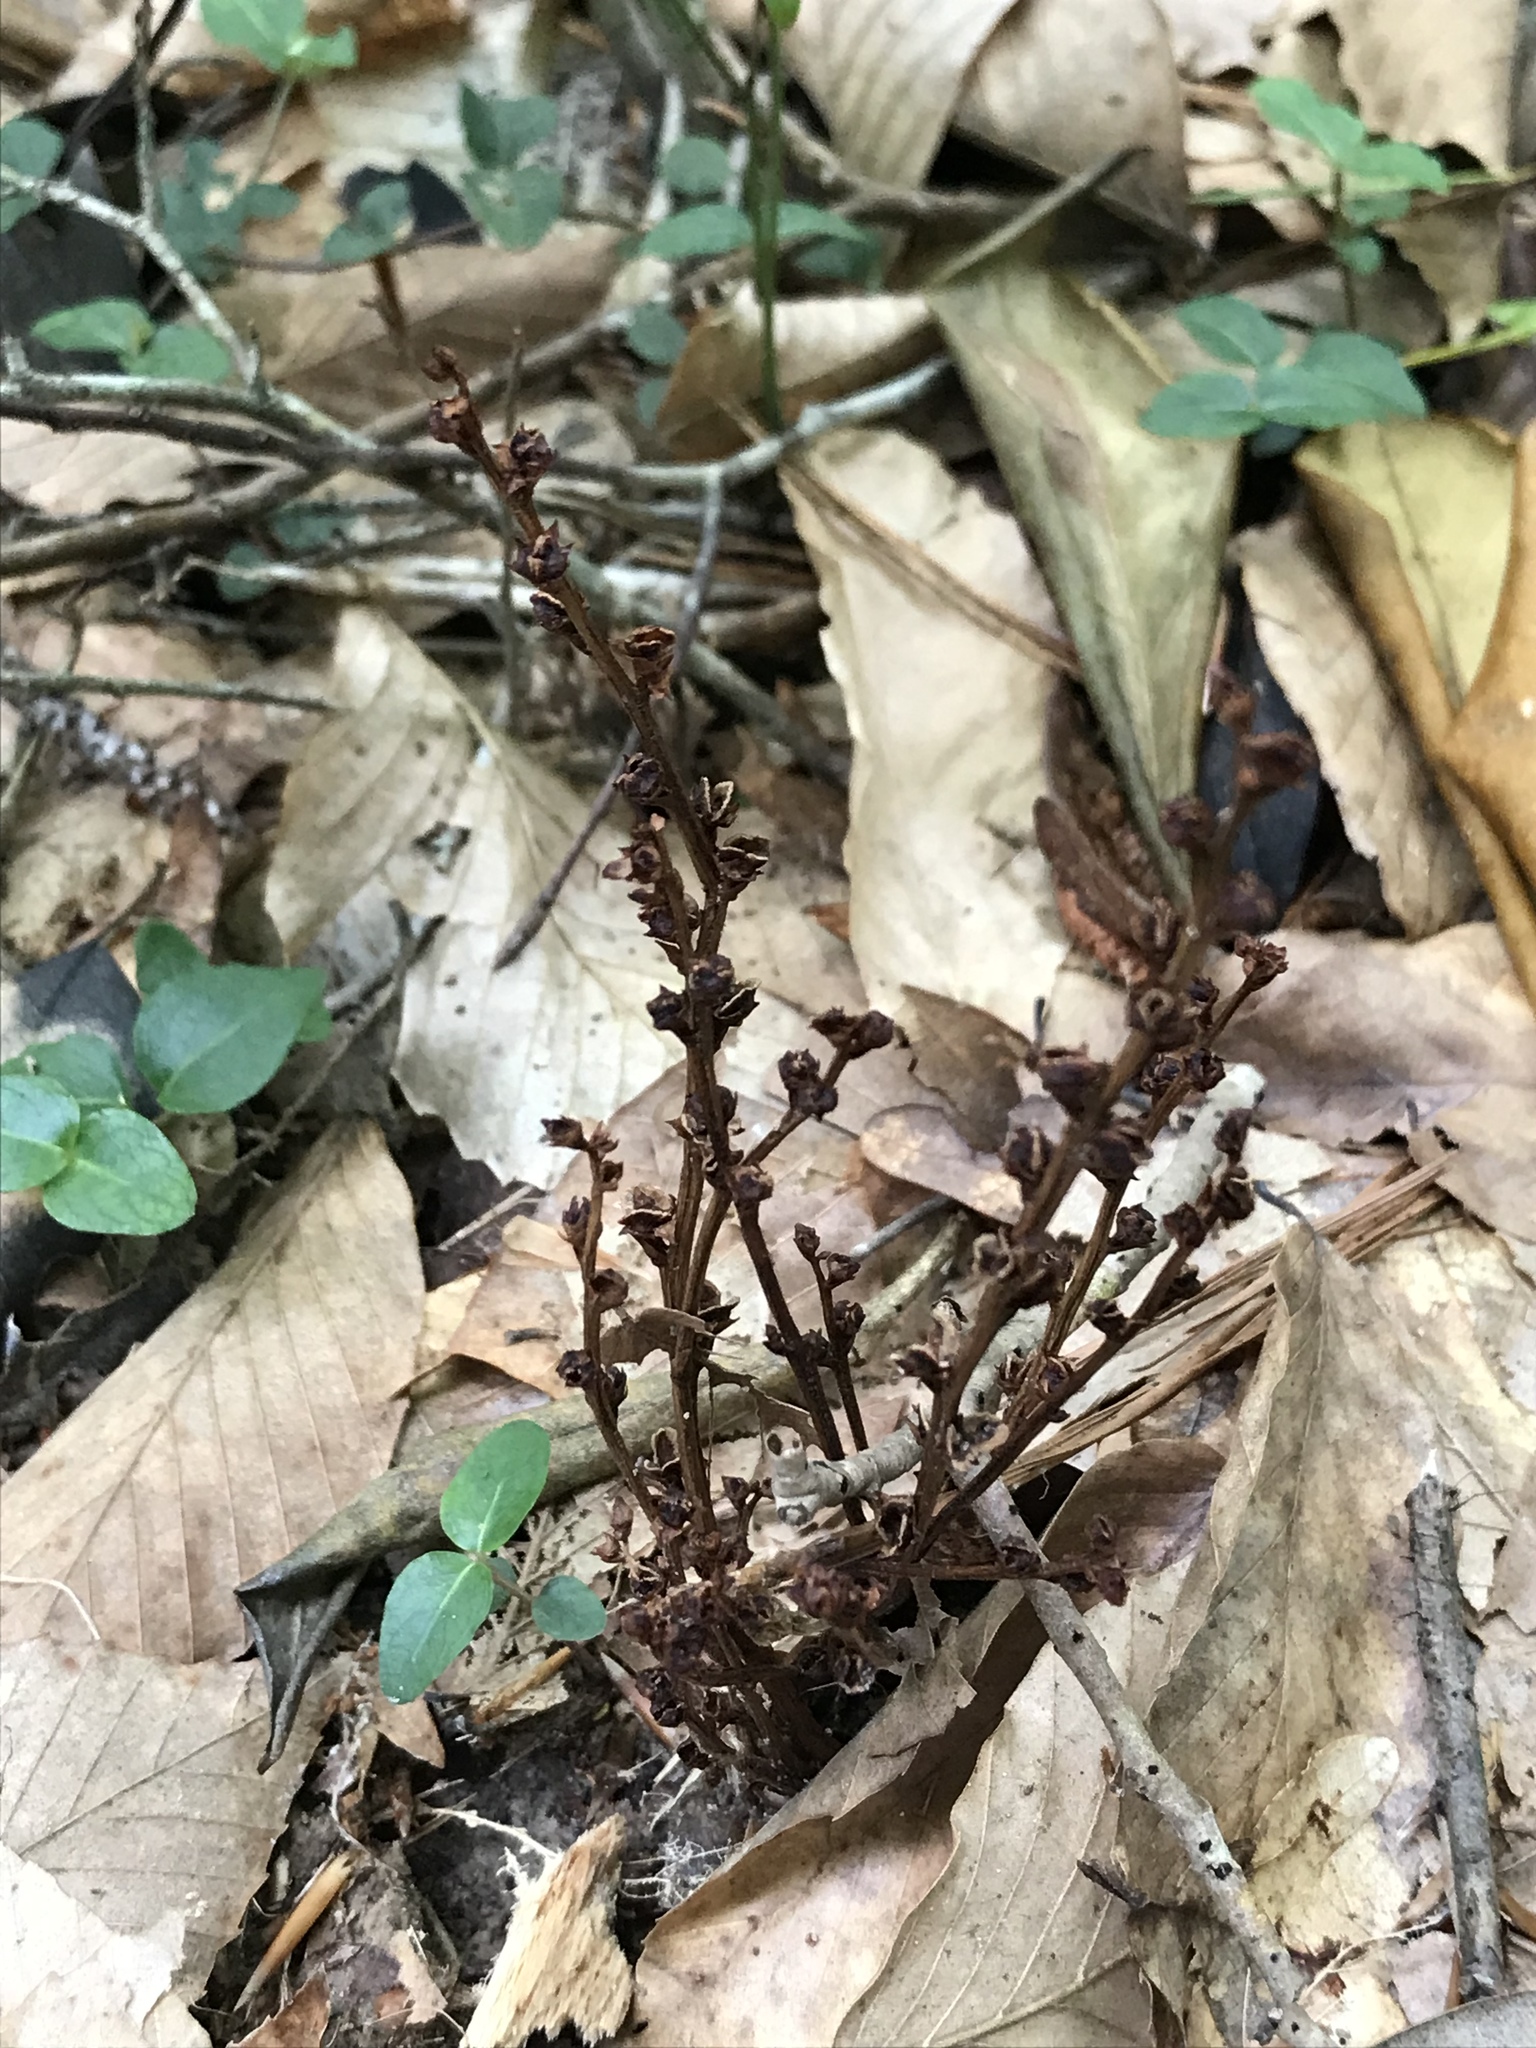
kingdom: Plantae
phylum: Tracheophyta
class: Magnoliopsida
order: Lamiales
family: Orobanchaceae
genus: Epifagus
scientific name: Epifagus virginiana
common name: Beechdrops
